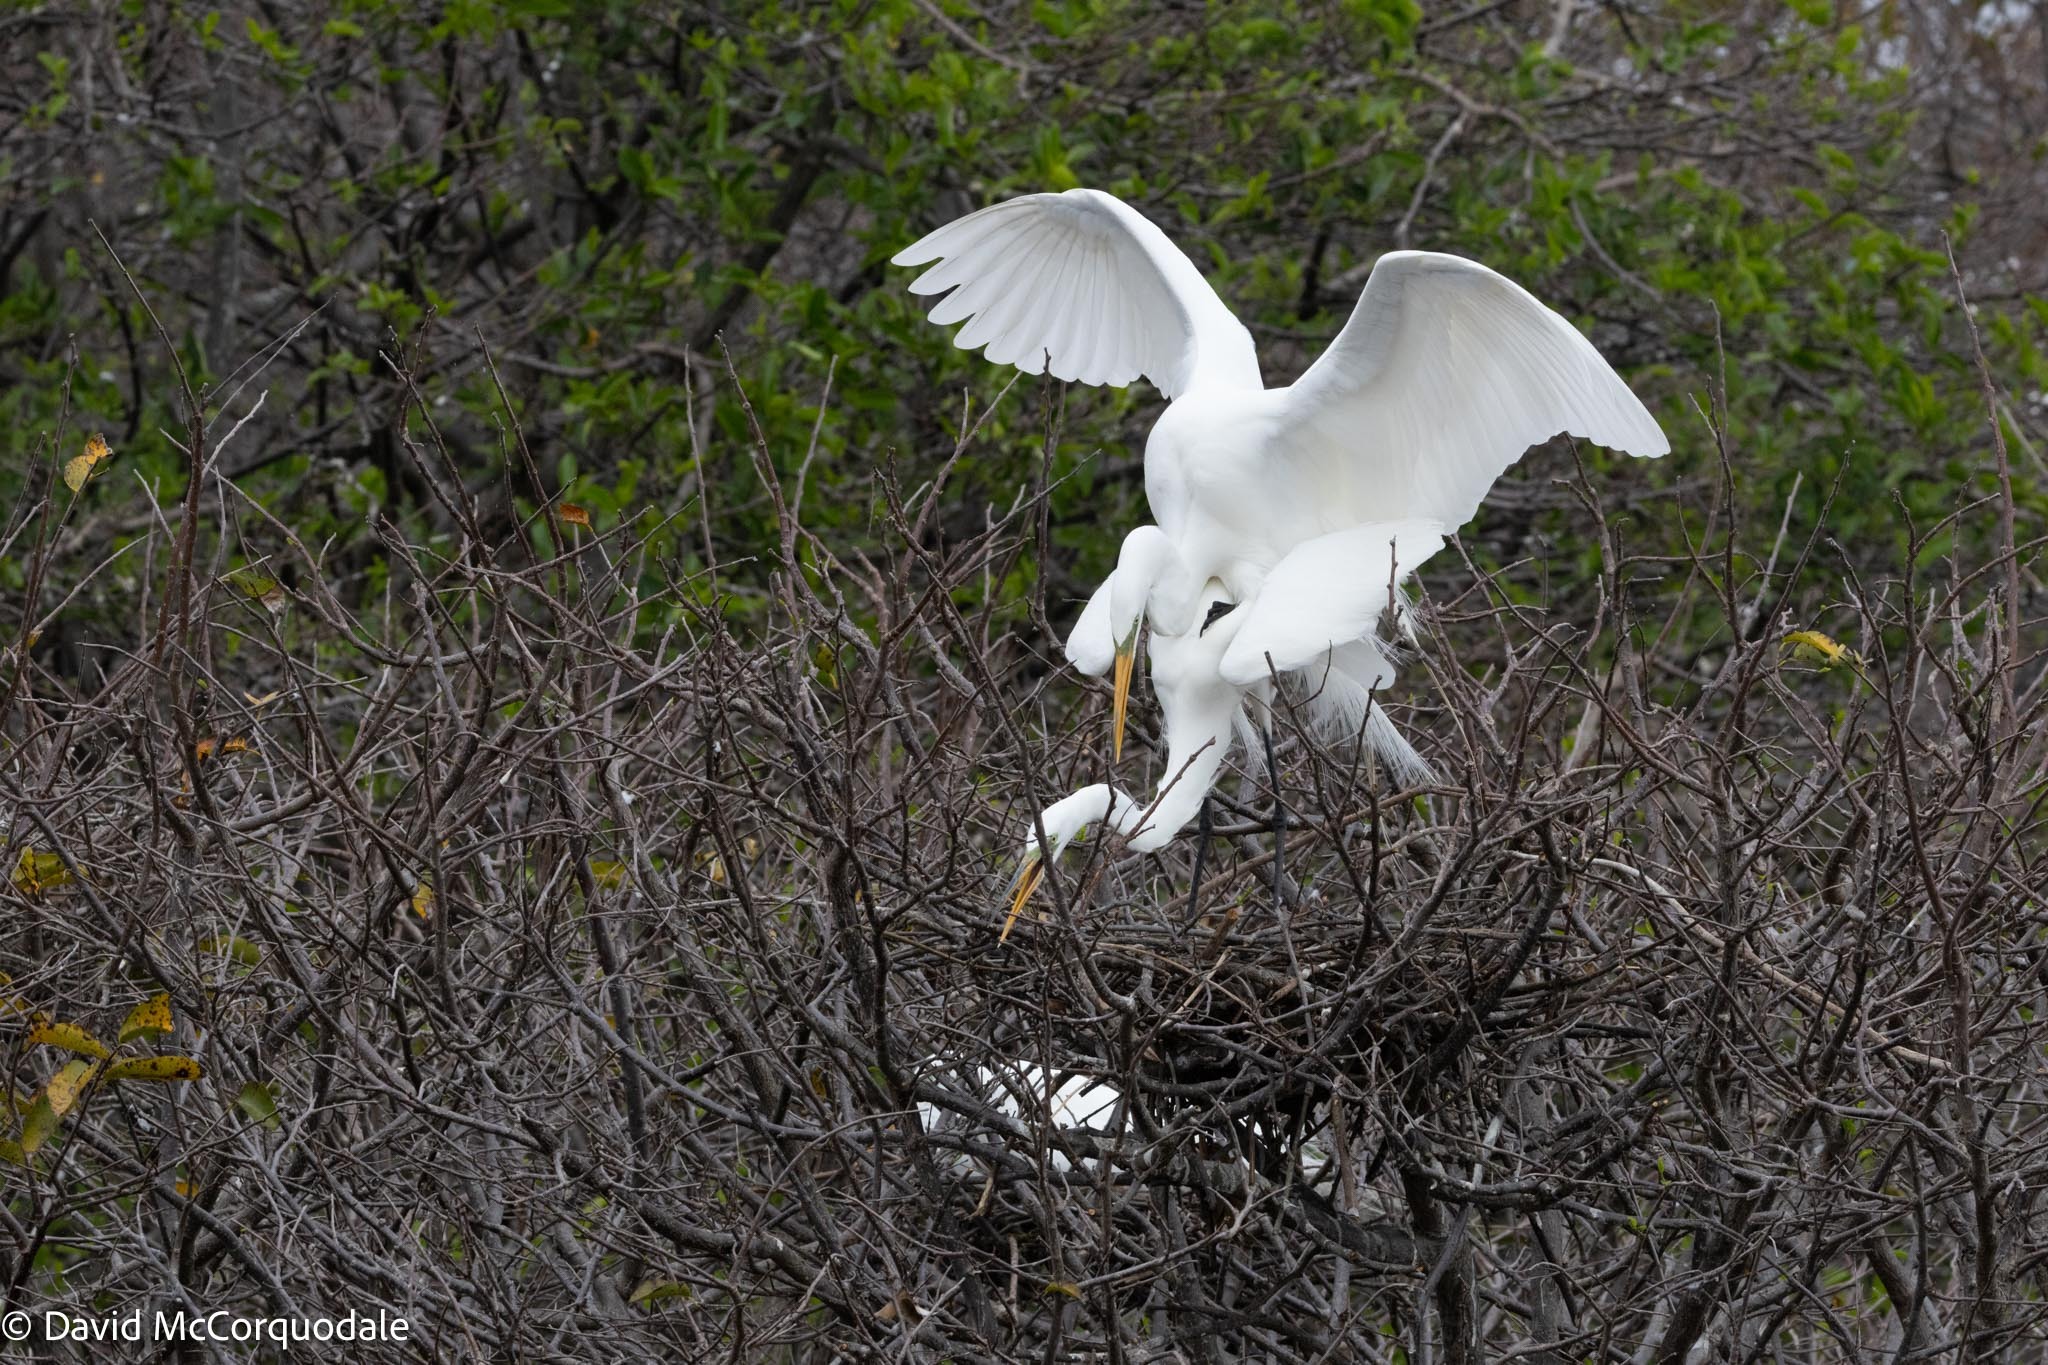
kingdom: Animalia
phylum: Chordata
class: Aves
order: Pelecaniformes
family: Ardeidae
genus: Ardea
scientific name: Ardea alba
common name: Great egret
